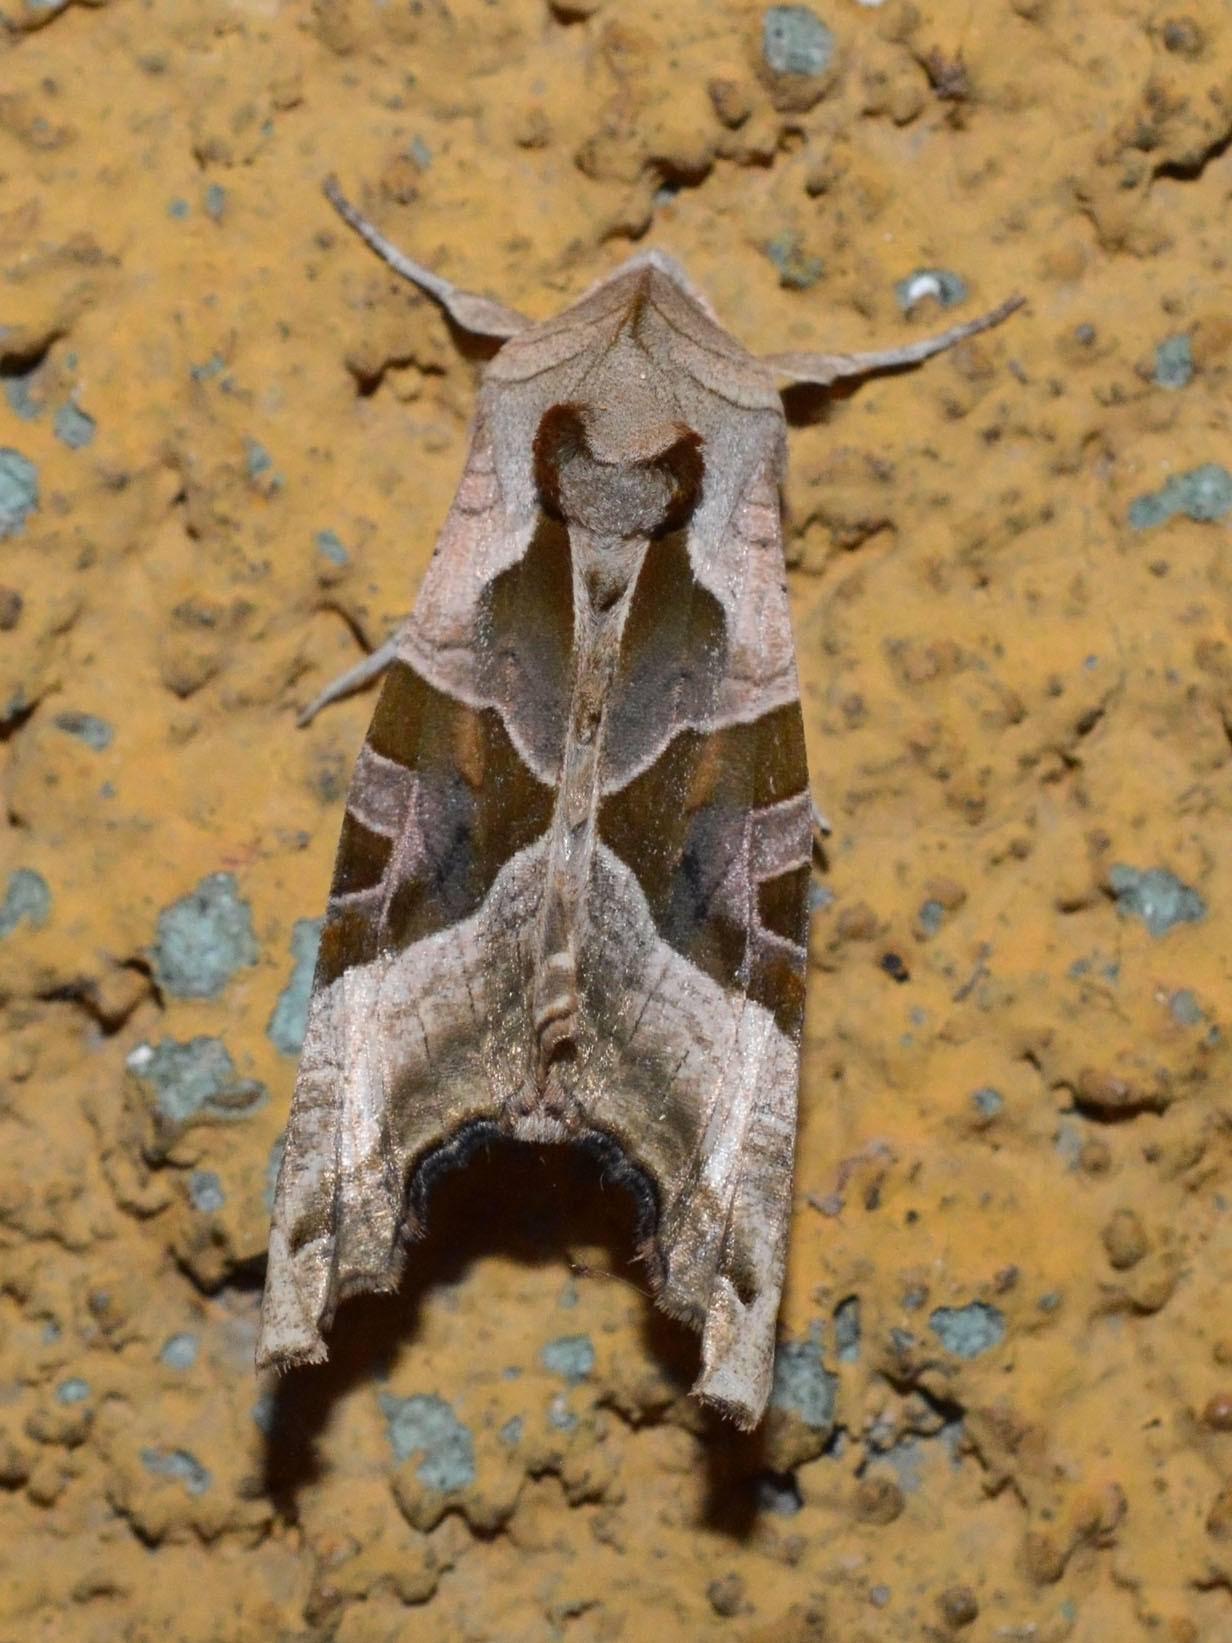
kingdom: Animalia
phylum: Arthropoda
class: Insecta
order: Lepidoptera
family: Noctuidae
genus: Phlogophora
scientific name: Phlogophora meticulosa
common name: Angle shades
